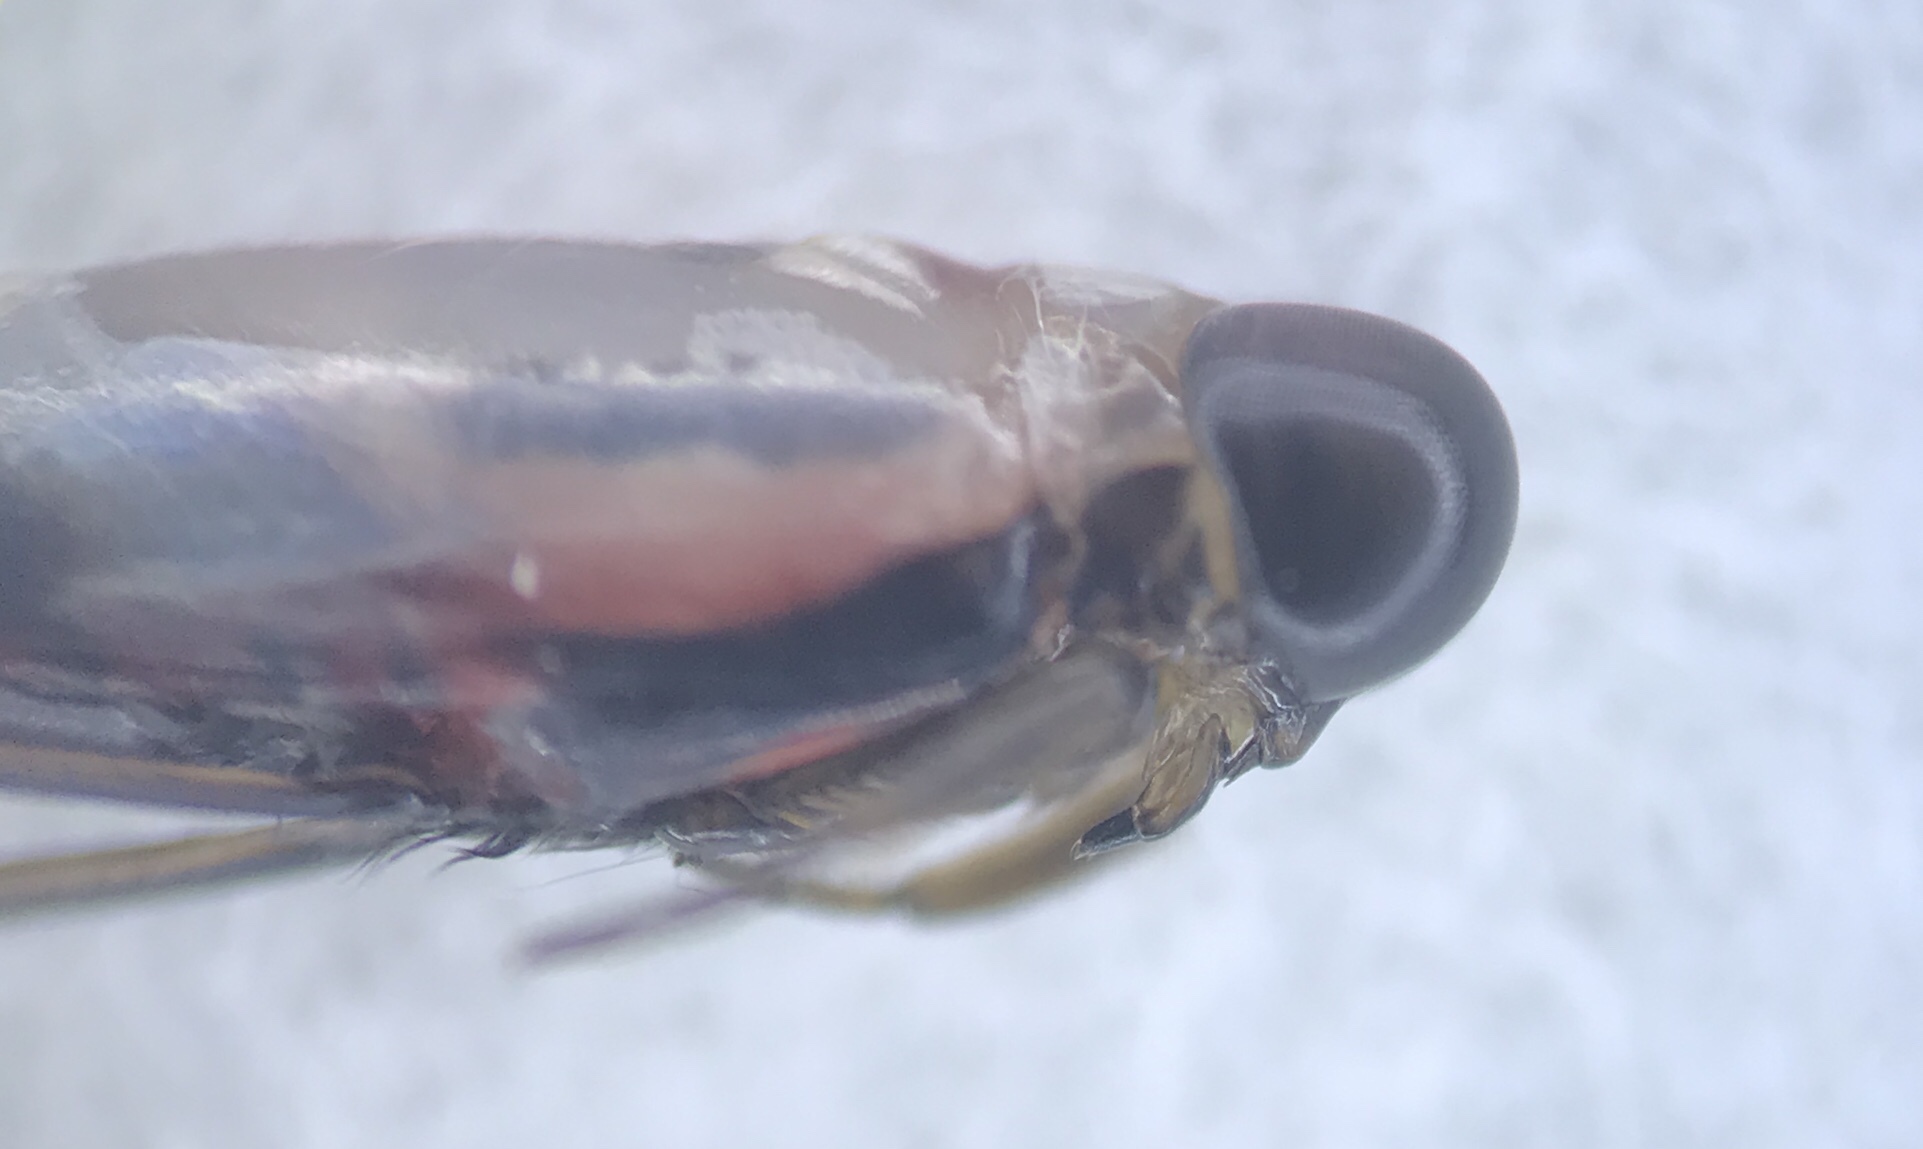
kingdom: Animalia
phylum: Arthropoda
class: Insecta
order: Hemiptera
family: Notonectidae
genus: Buenoa
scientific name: Buenoa confusa
